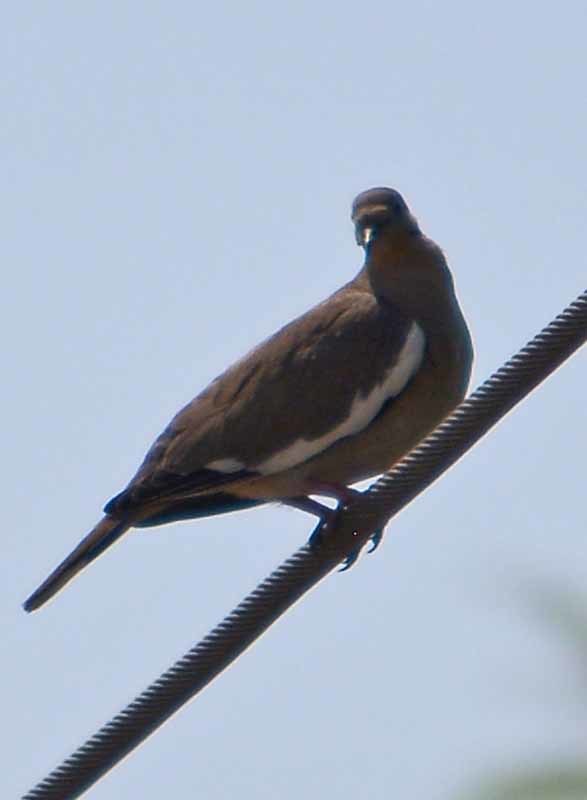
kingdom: Animalia
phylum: Chordata
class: Aves
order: Columbiformes
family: Columbidae
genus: Zenaida
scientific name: Zenaida asiatica
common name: White-winged dove
